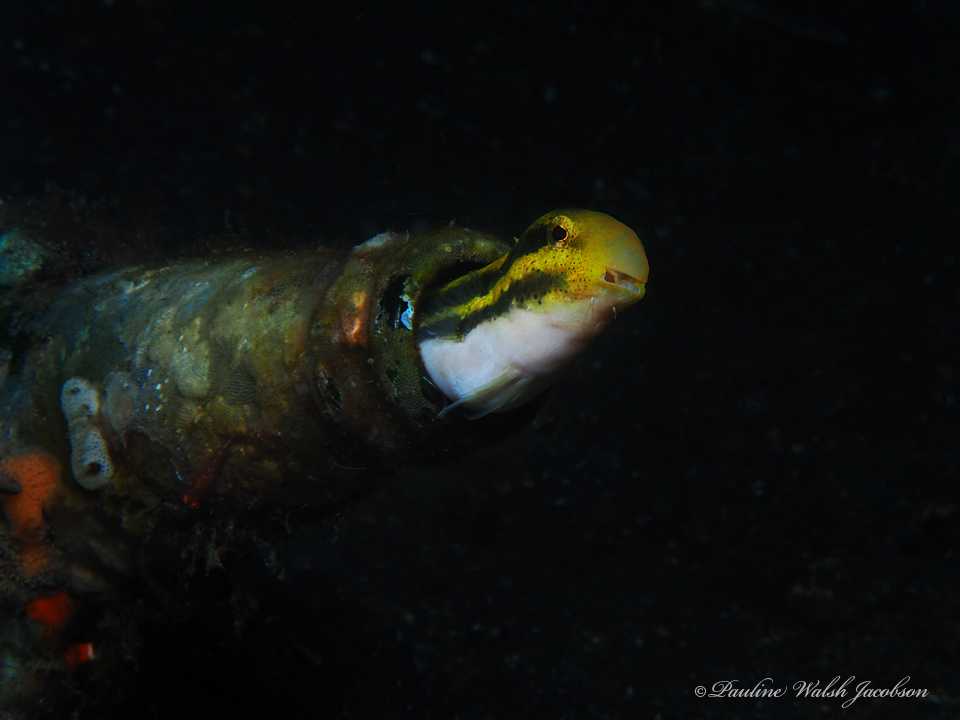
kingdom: Animalia
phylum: Chordata
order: Perciformes
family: Blenniidae
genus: Petroscirtes
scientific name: Petroscirtes breviceps
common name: Short-head sabretooth blenny
